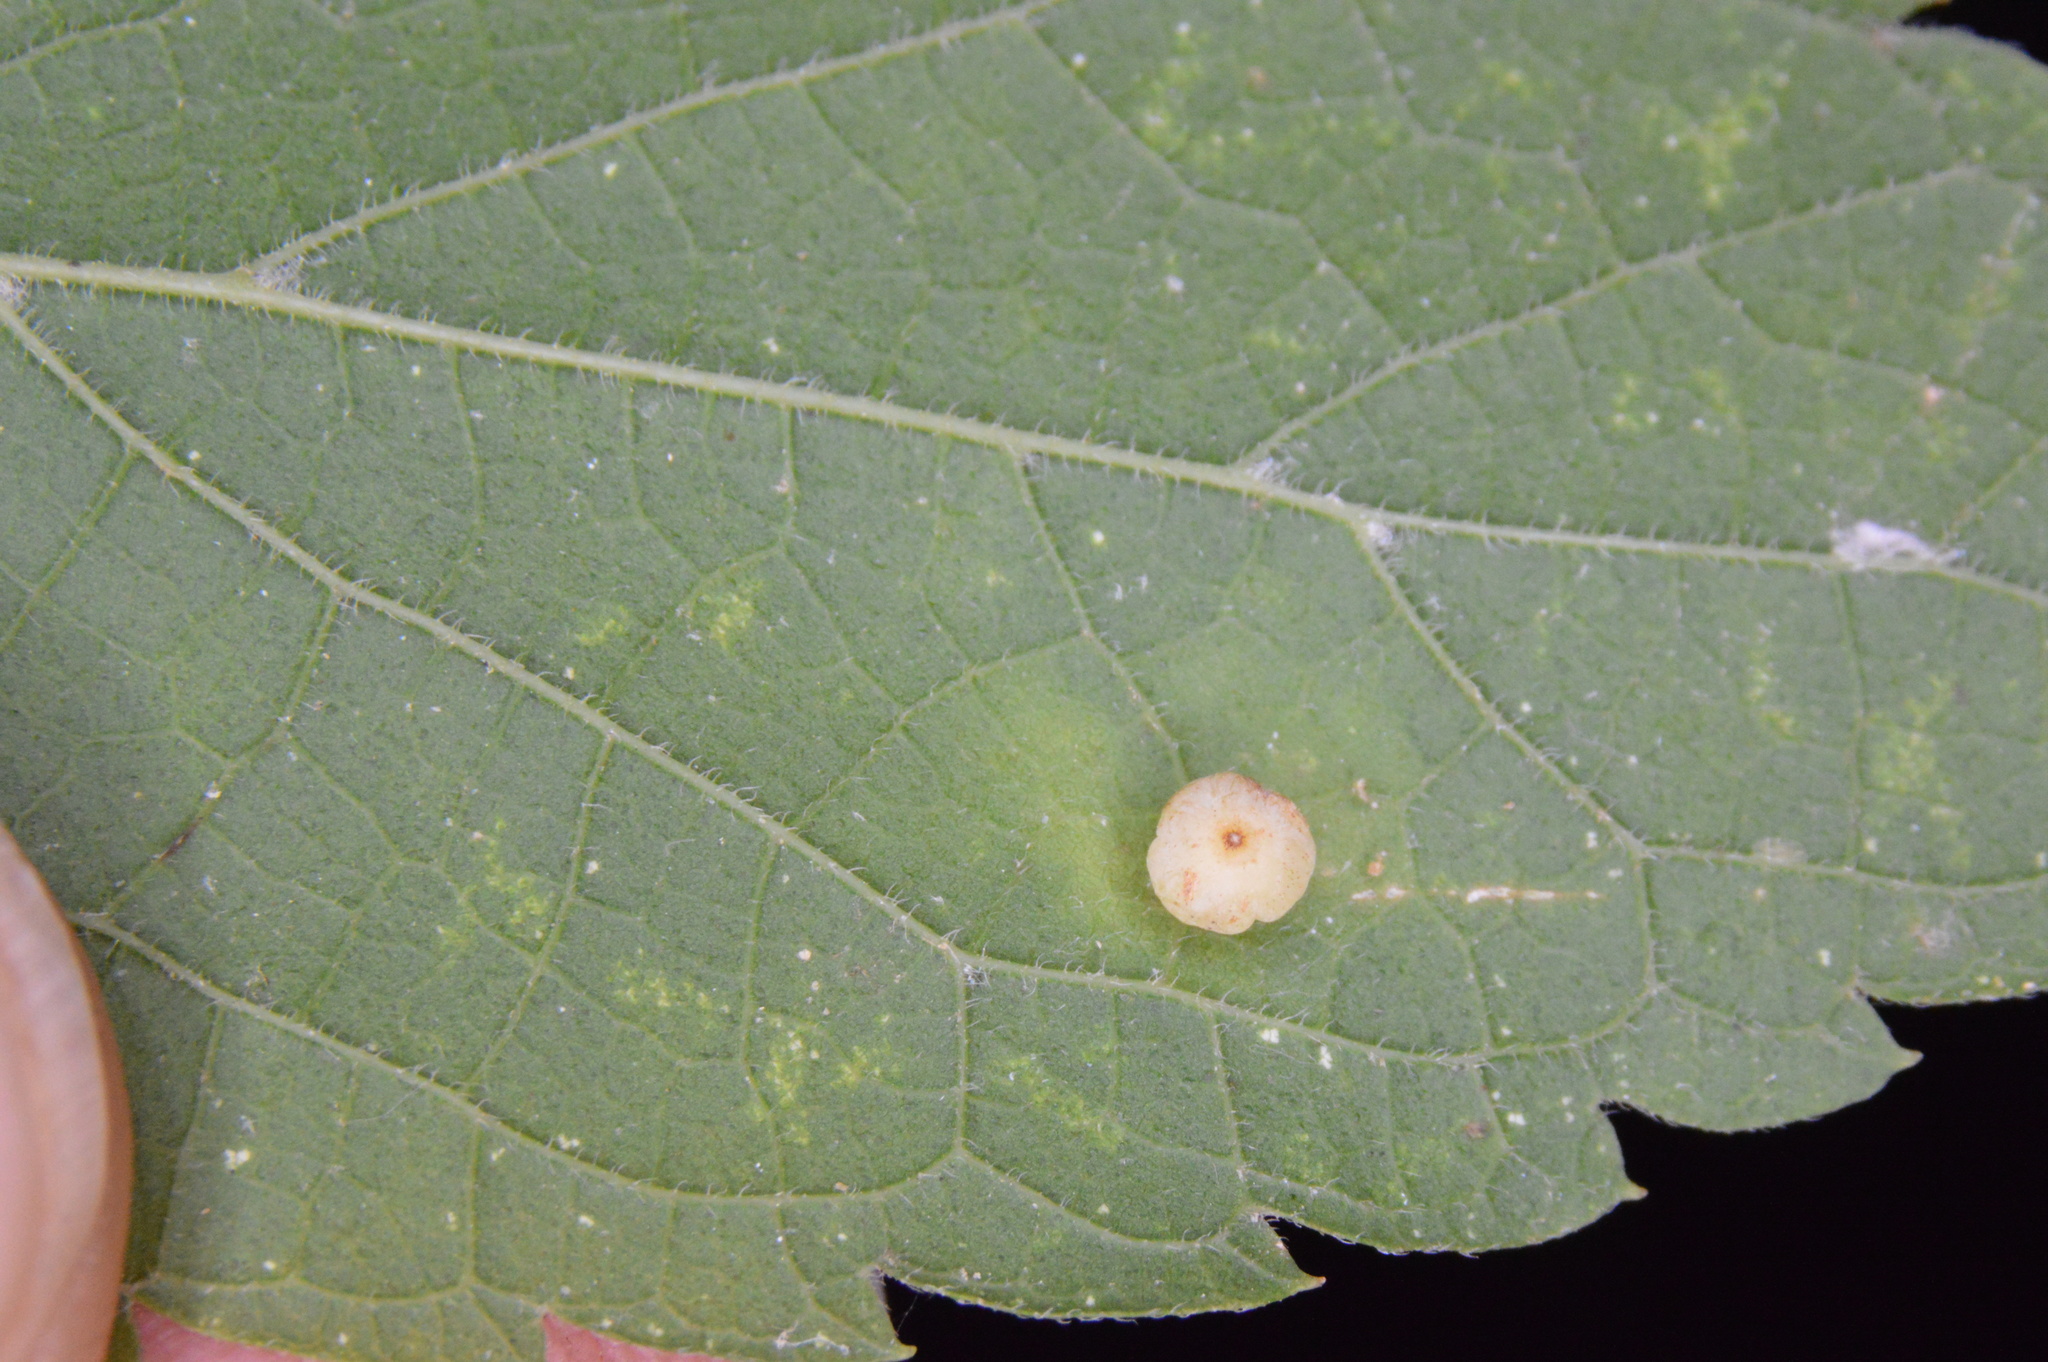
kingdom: Animalia
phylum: Arthropoda
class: Insecta
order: Diptera
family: Cecidomyiidae
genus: Celticecis
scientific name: Celticecis globosa
